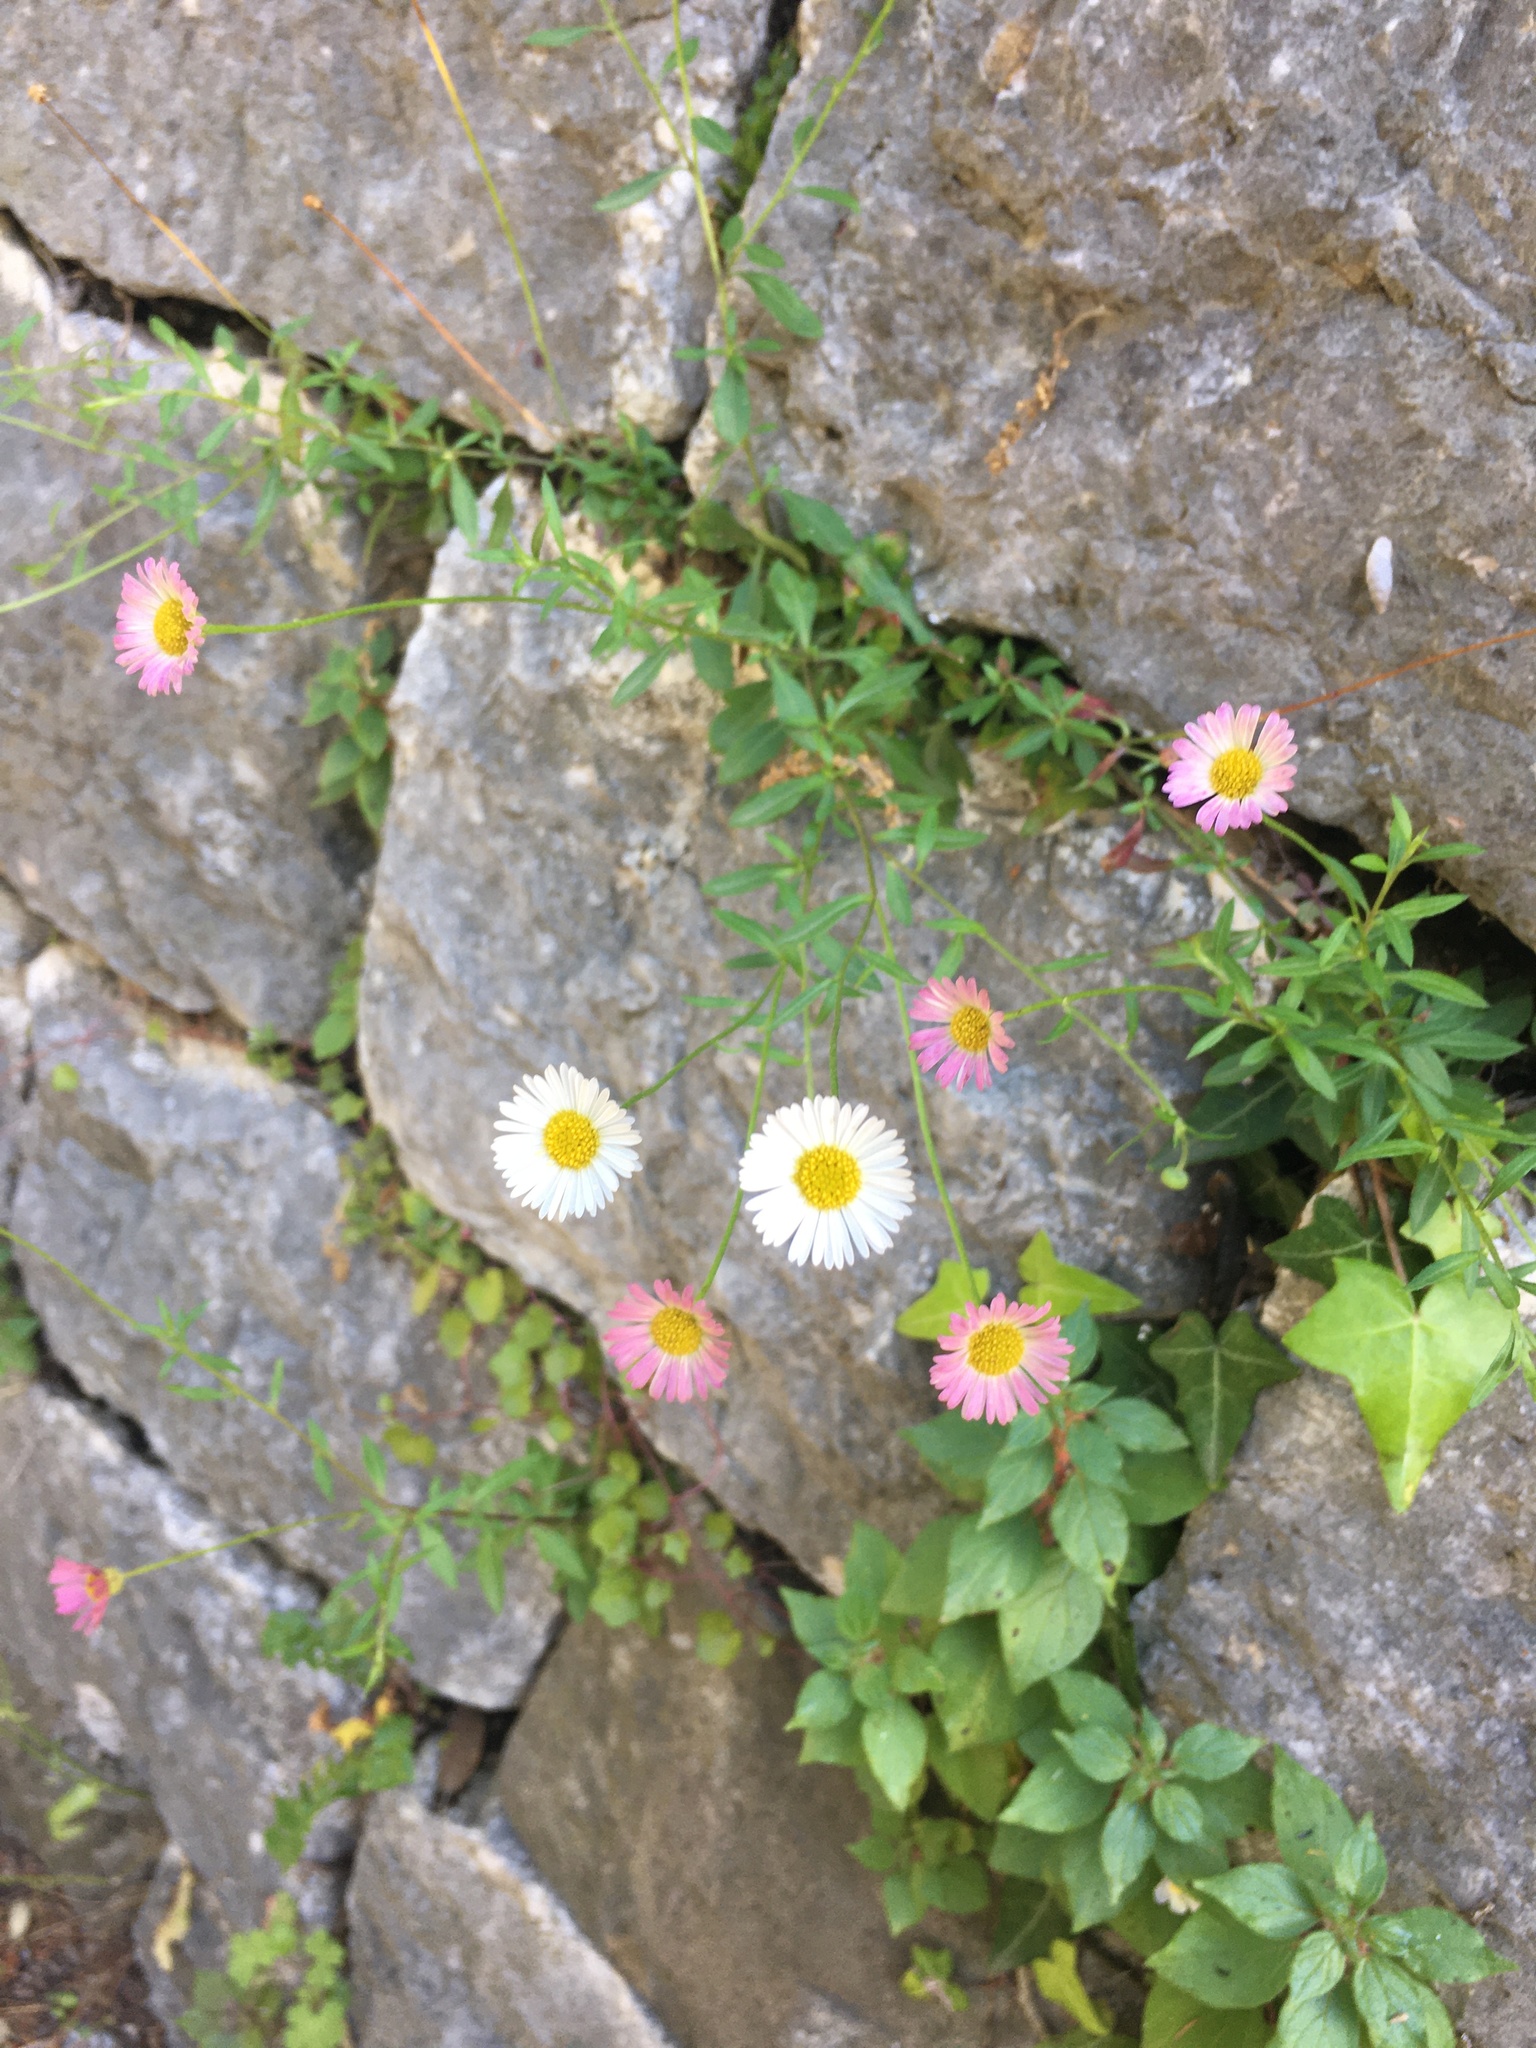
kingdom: Plantae
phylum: Tracheophyta
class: Magnoliopsida
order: Asterales
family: Asteraceae
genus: Erigeron
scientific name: Erigeron karvinskianus
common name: Mexican fleabane
